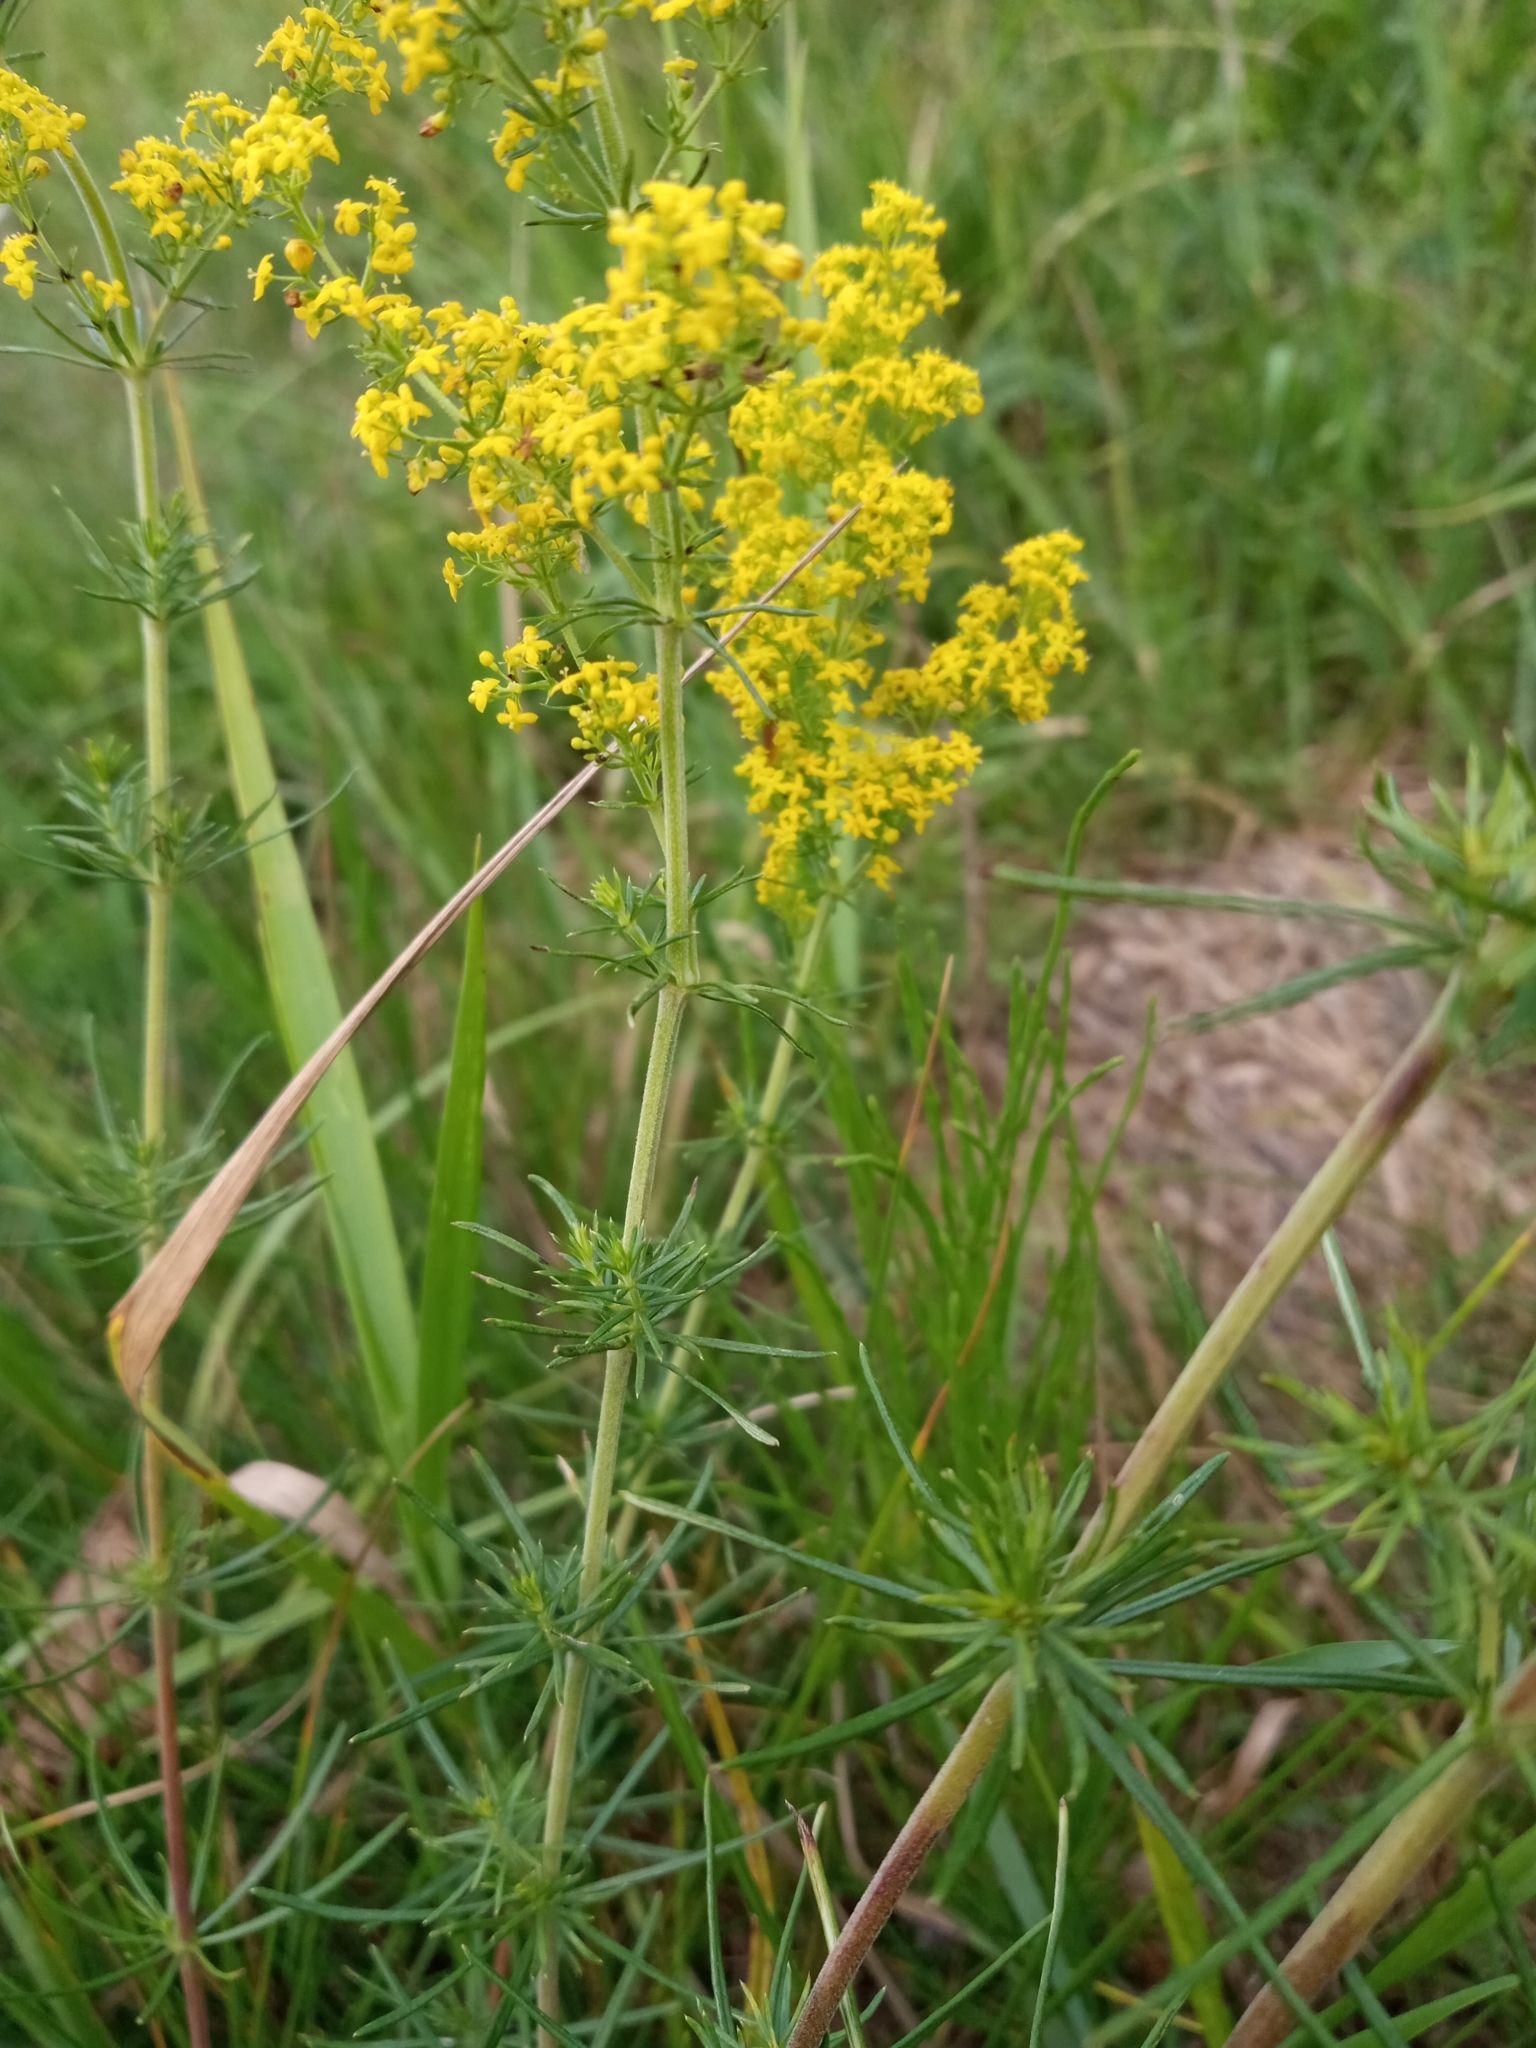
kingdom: Plantae
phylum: Tracheophyta
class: Magnoliopsida
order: Gentianales
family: Rubiaceae
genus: Galium
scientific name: Galium verum
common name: Lady's bedstraw
